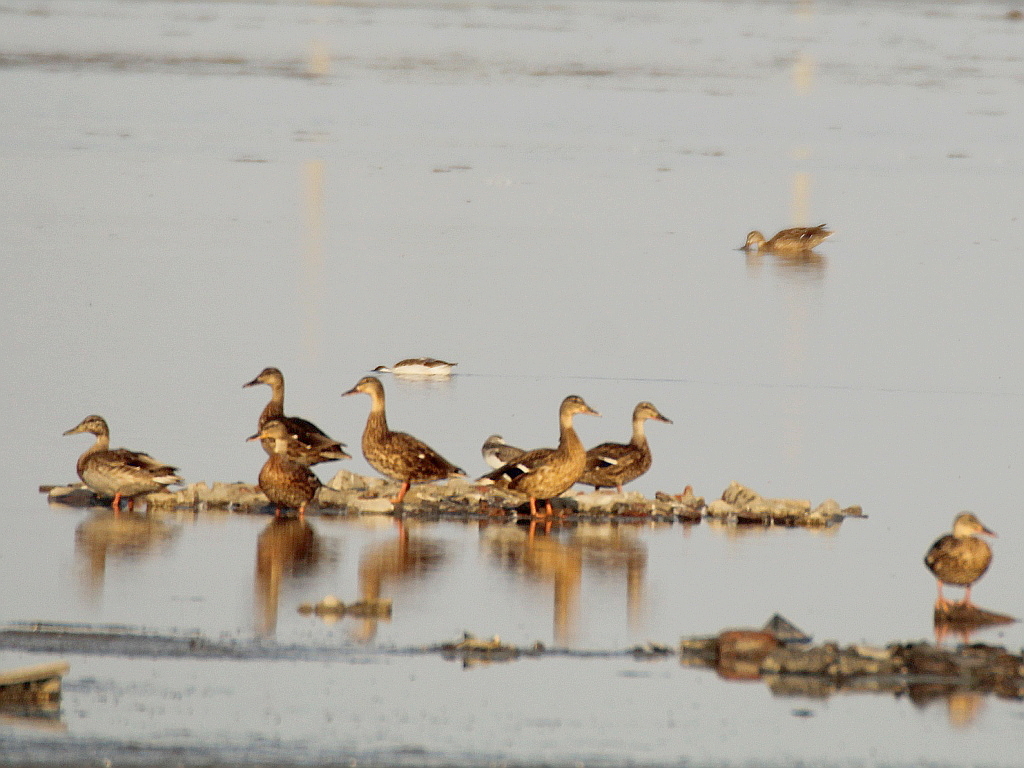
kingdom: Animalia
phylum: Chordata
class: Aves
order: Anseriformes
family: Anatidae
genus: Anas
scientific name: Anas platyrhynchos
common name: Mallard
